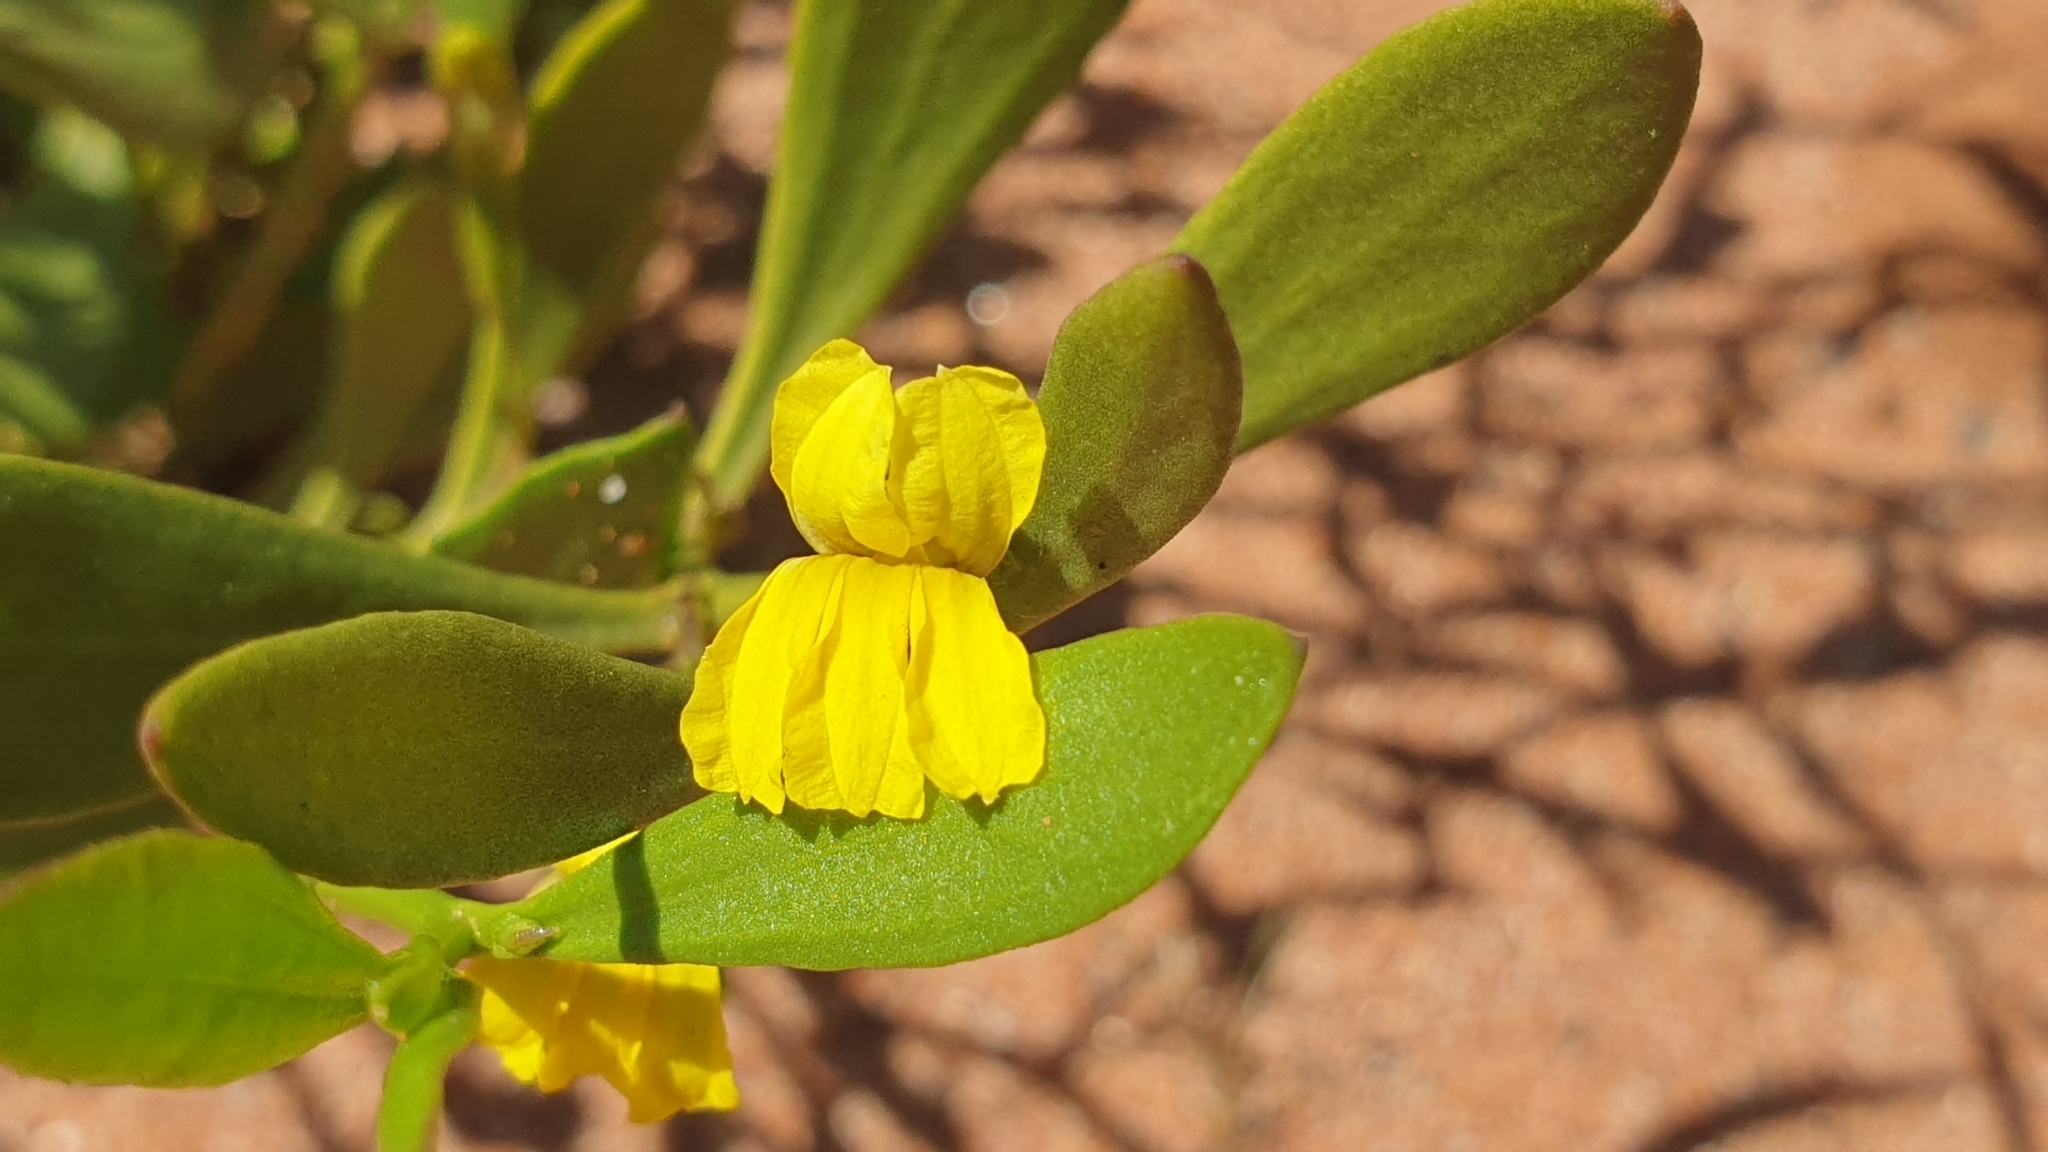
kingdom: Plantae
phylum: Tracheophyta
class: Magnoliopsida
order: Asterales
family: Goodeniaceae
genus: Goodenia
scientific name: Goodenia varia
